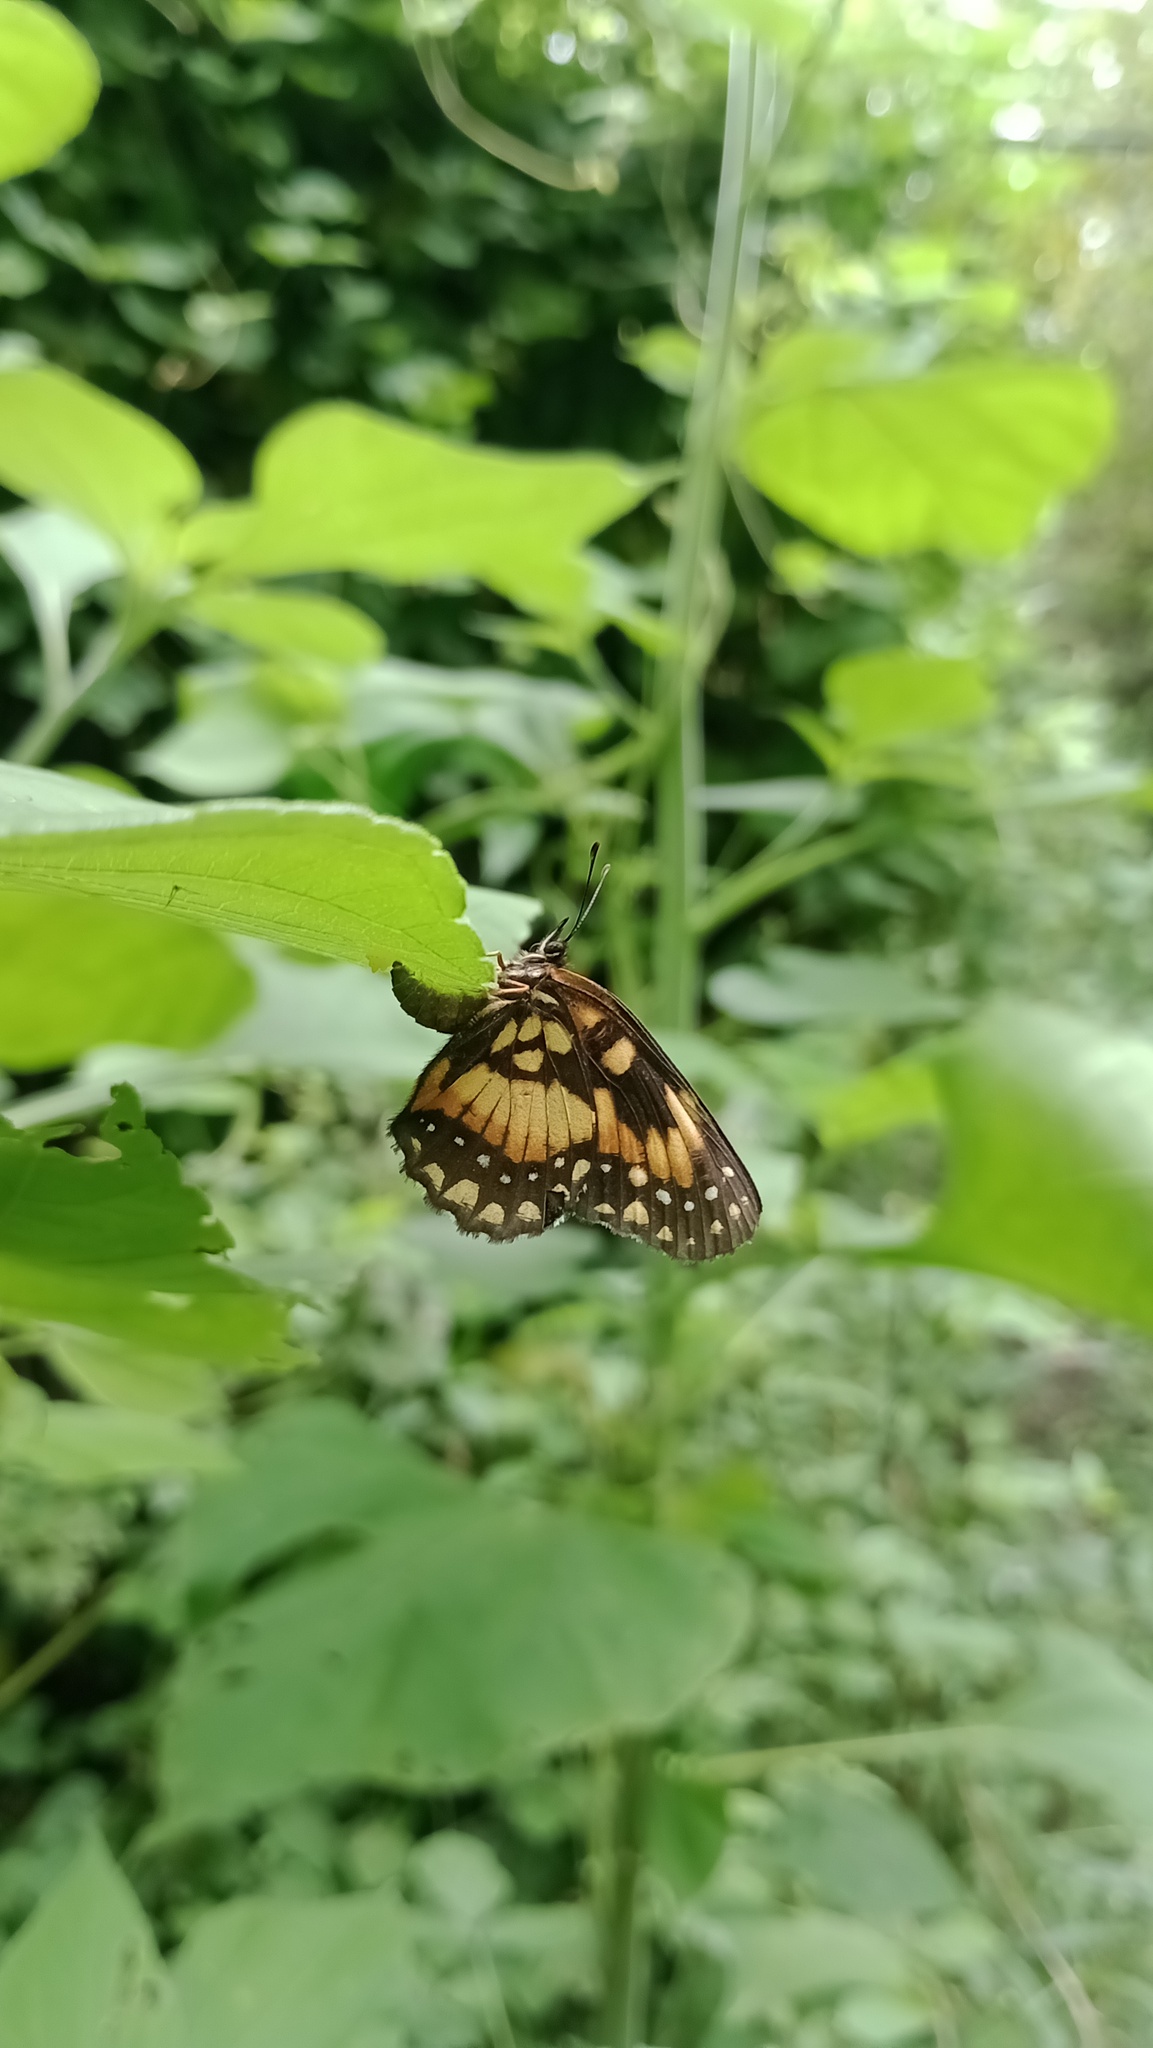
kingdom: Animalia
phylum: Arthropoda
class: Insecta
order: Lepidoptera
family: Nymphalidae
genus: Chlosyne
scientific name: Chlosyne lacinia
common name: Bordered patch
